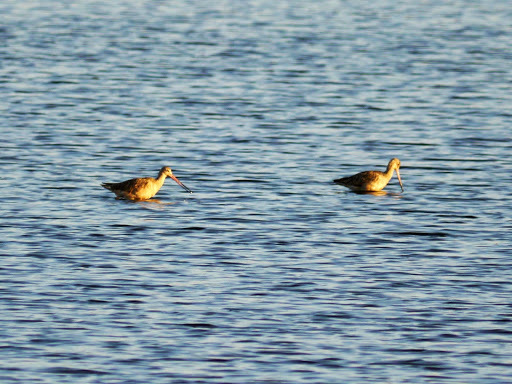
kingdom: Animalia
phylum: Chordata
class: Aves
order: Charadriiformes
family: Scolopacidae
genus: Limosa
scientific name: Limosa fedoa
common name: Marbled godwit
